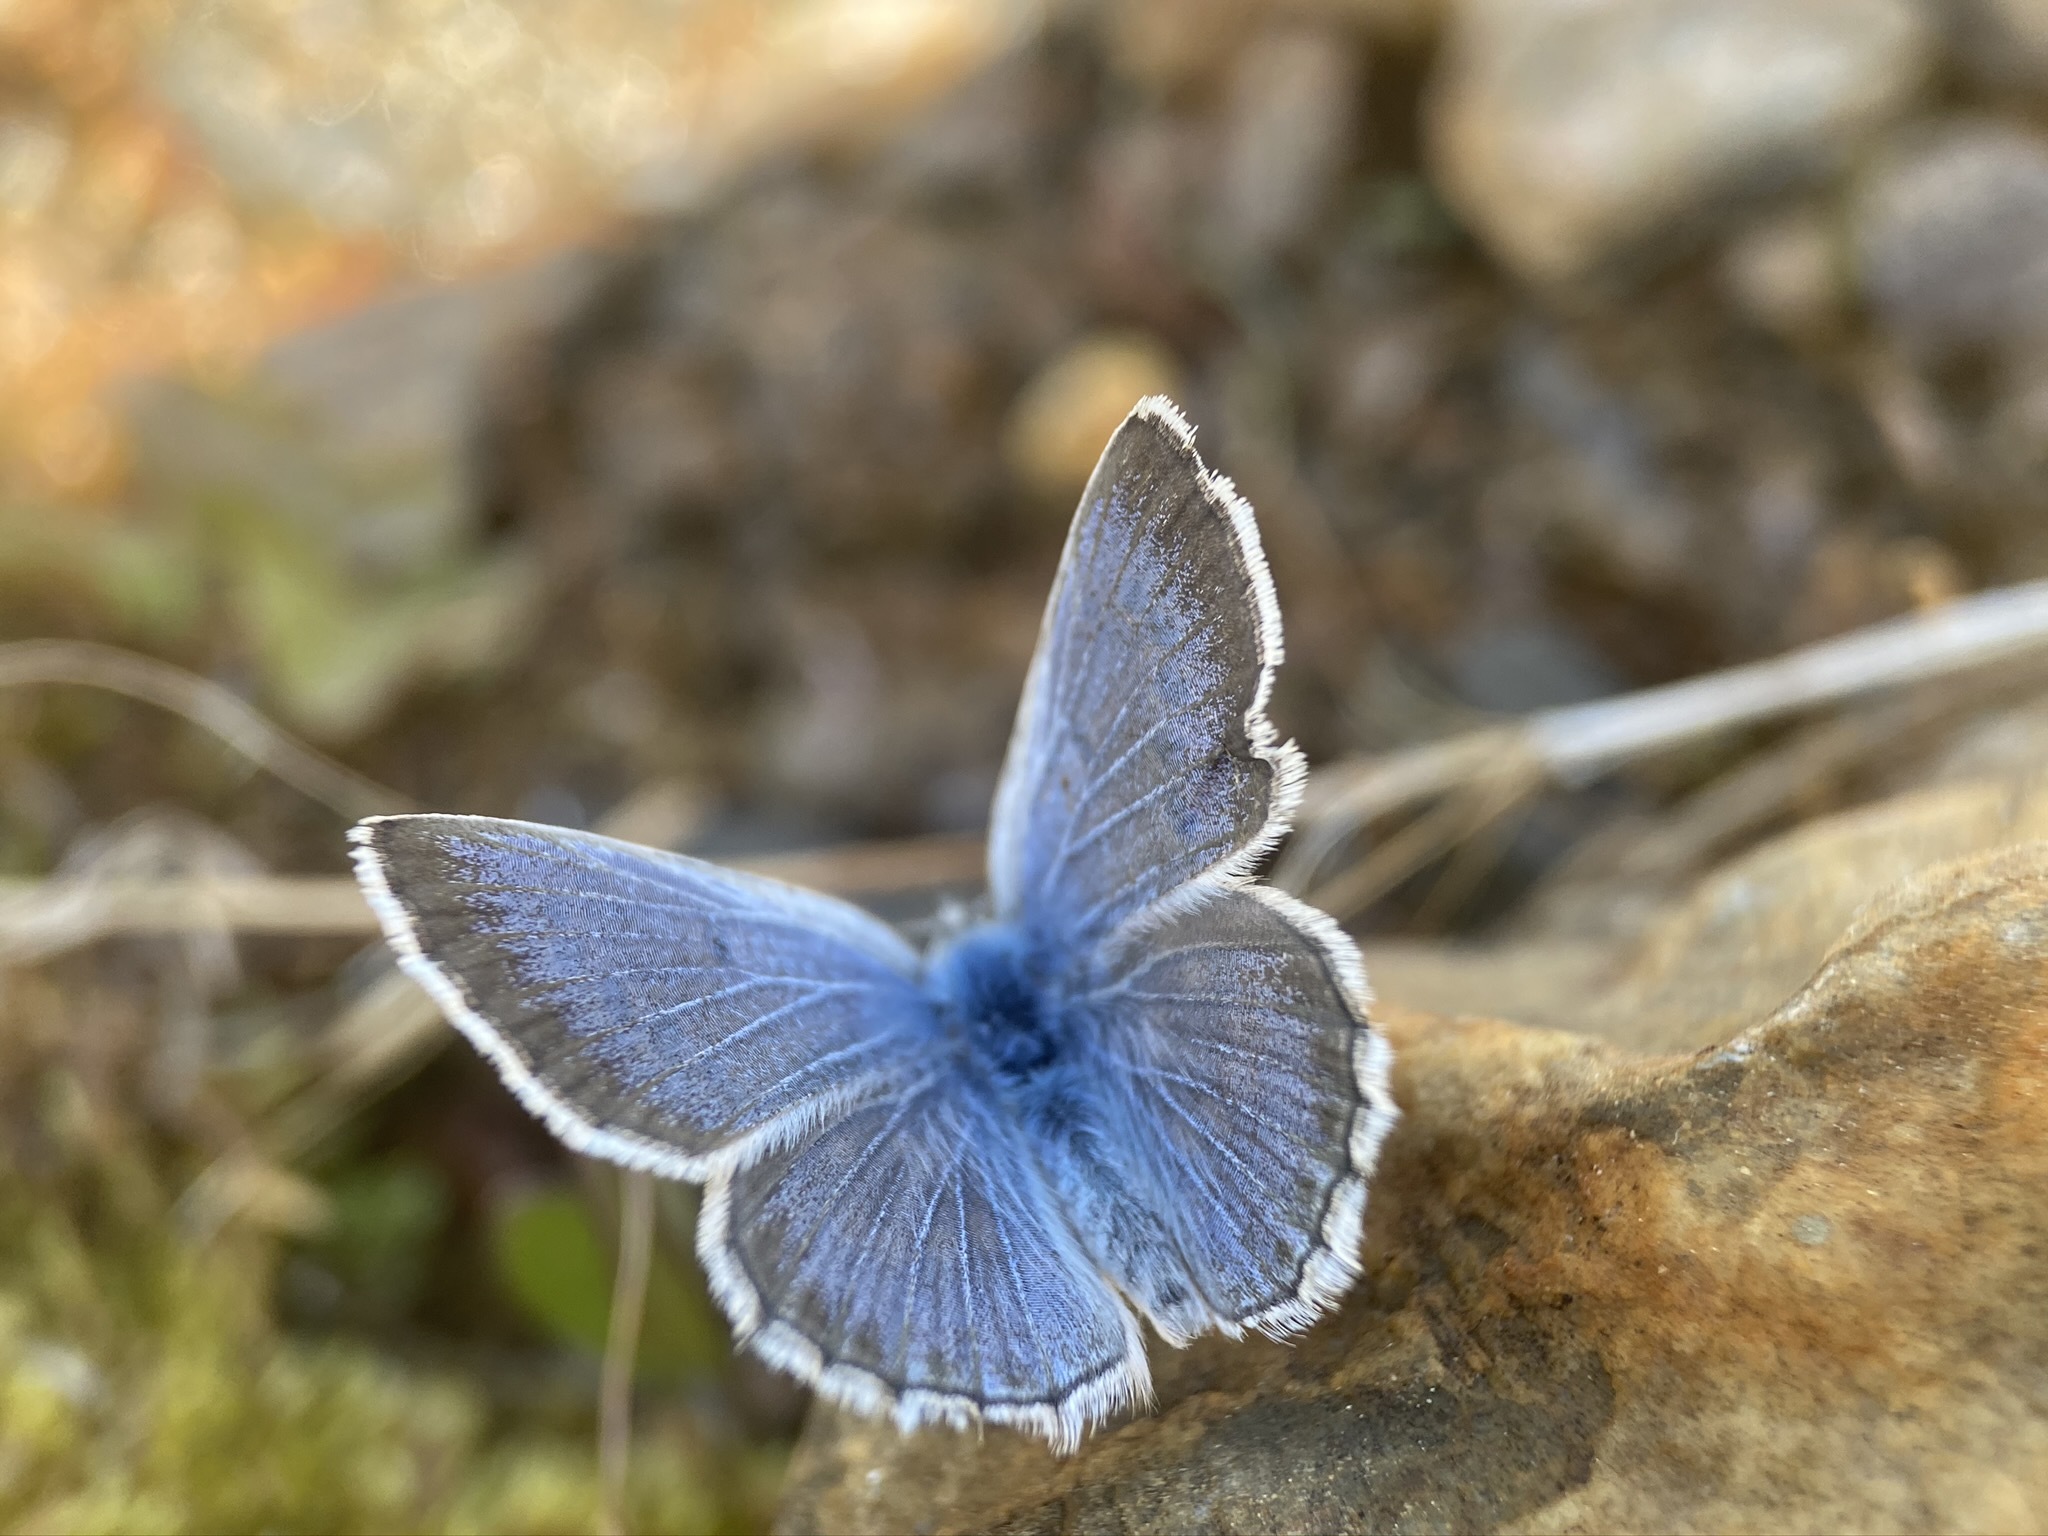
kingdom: Animalia
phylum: Arthropoda
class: Insecta
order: Lepidoptera
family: Lycaenidae
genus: Icaricia
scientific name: Icaricia icarioides
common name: Boisduval's blue
